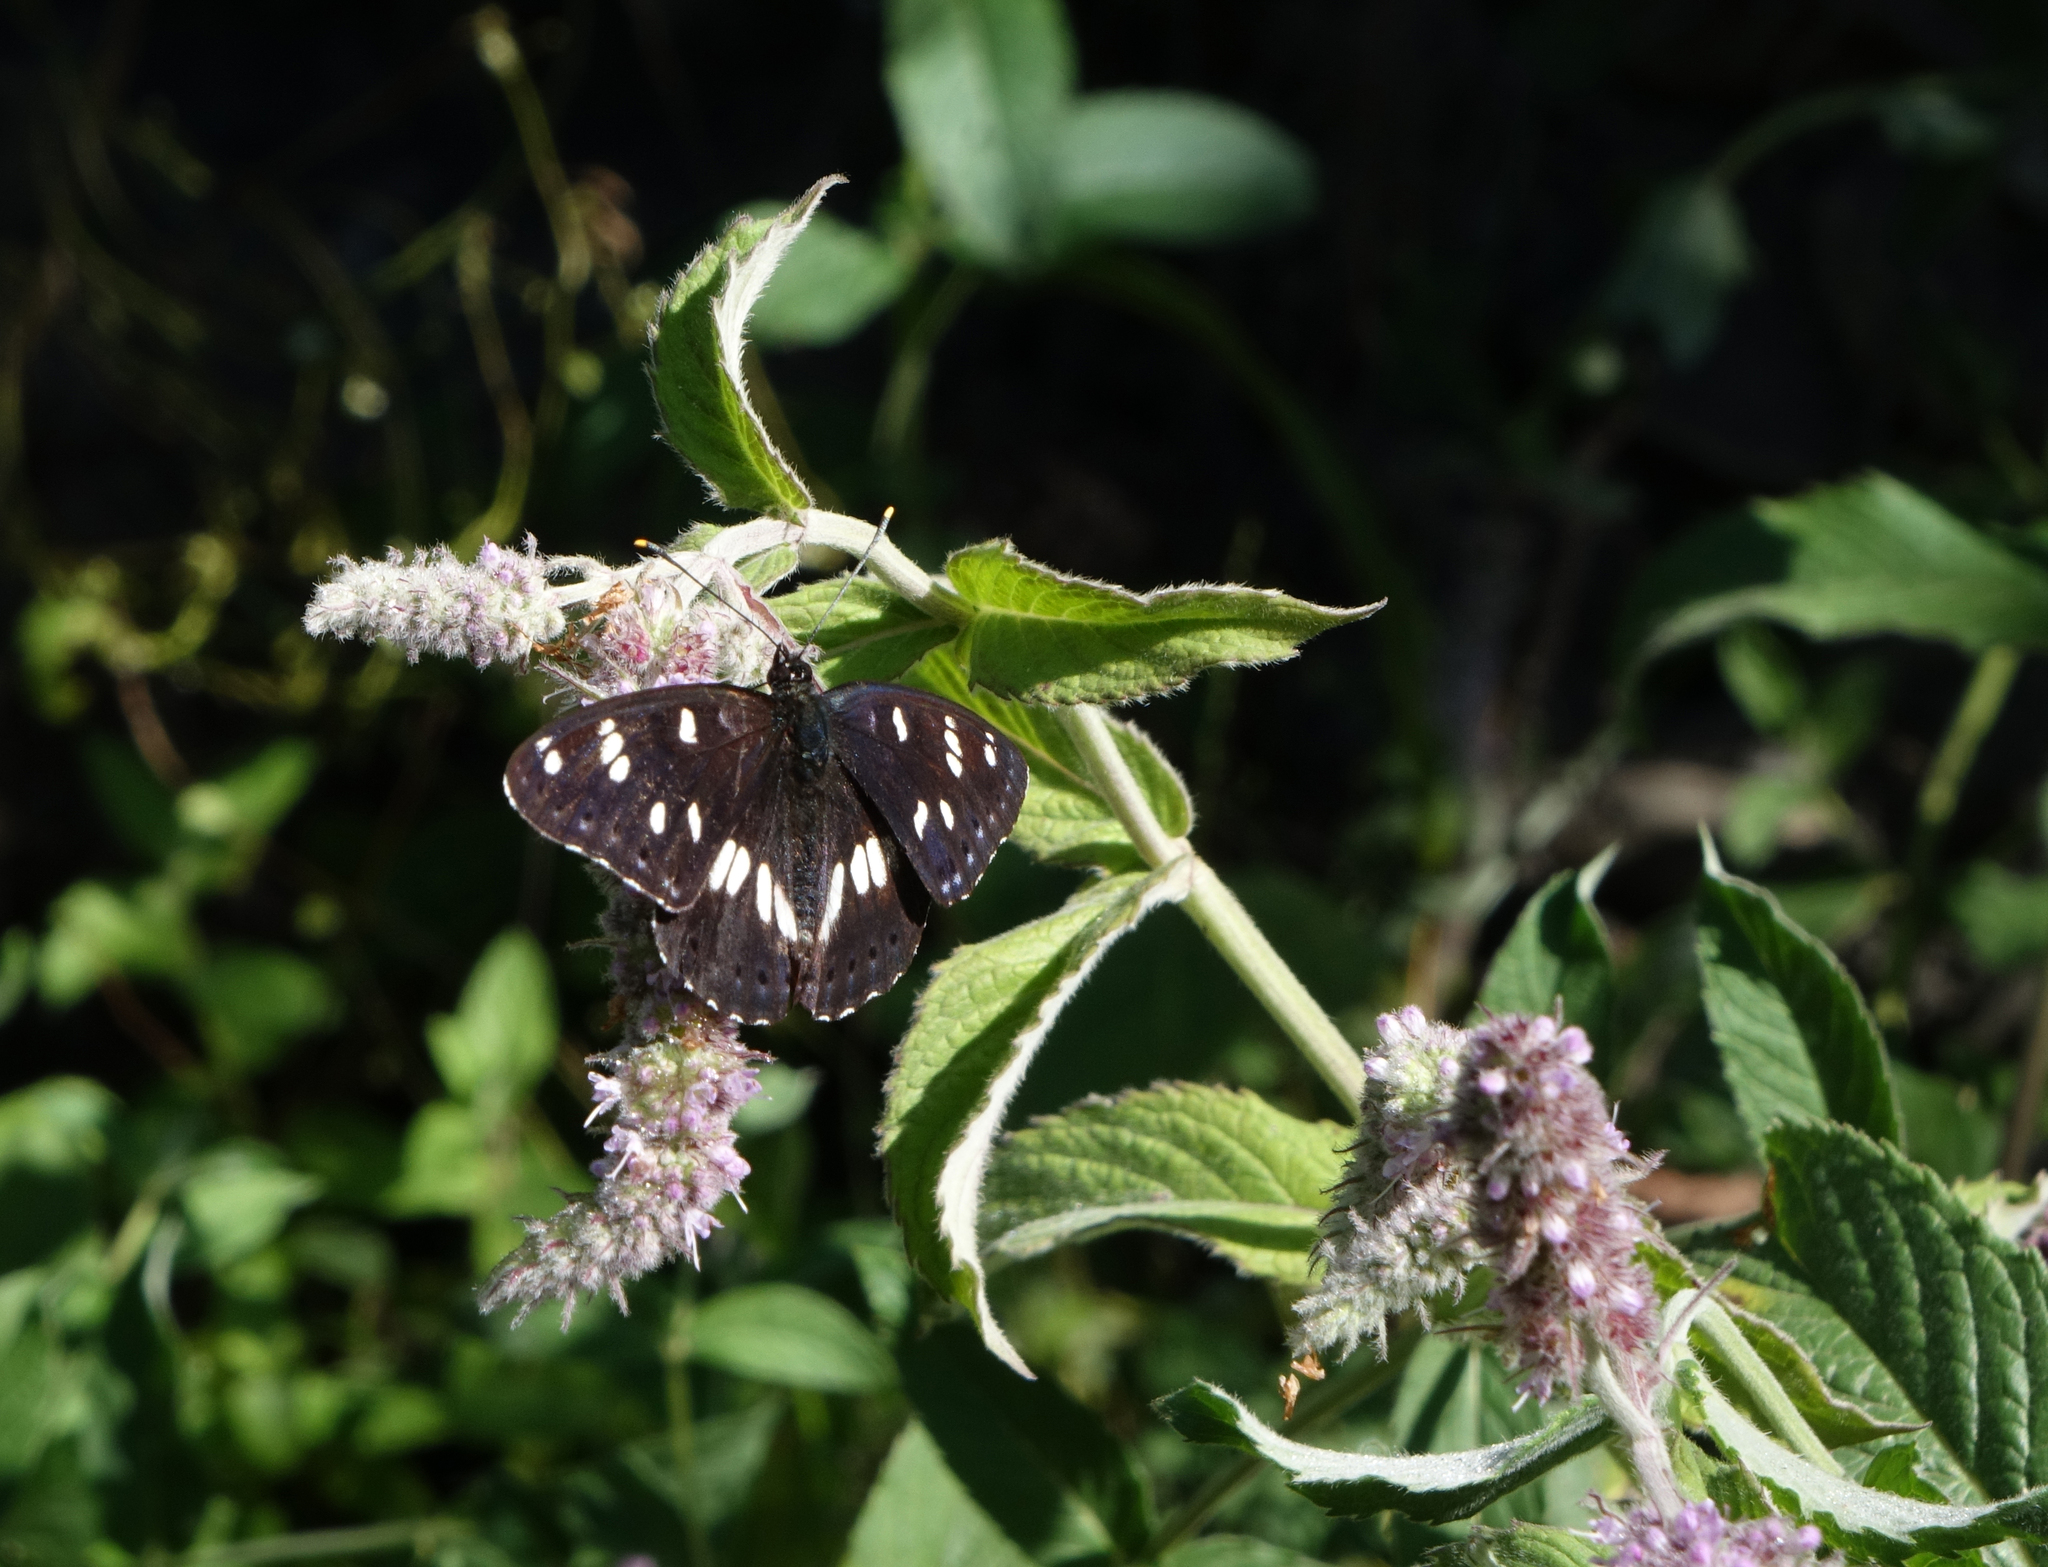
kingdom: Animalia
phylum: Arthropoda
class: Insecta
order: Lepidoptera
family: Nymphalidae
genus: Limenitis
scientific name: Limenitis reducta
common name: Southern white admiral
